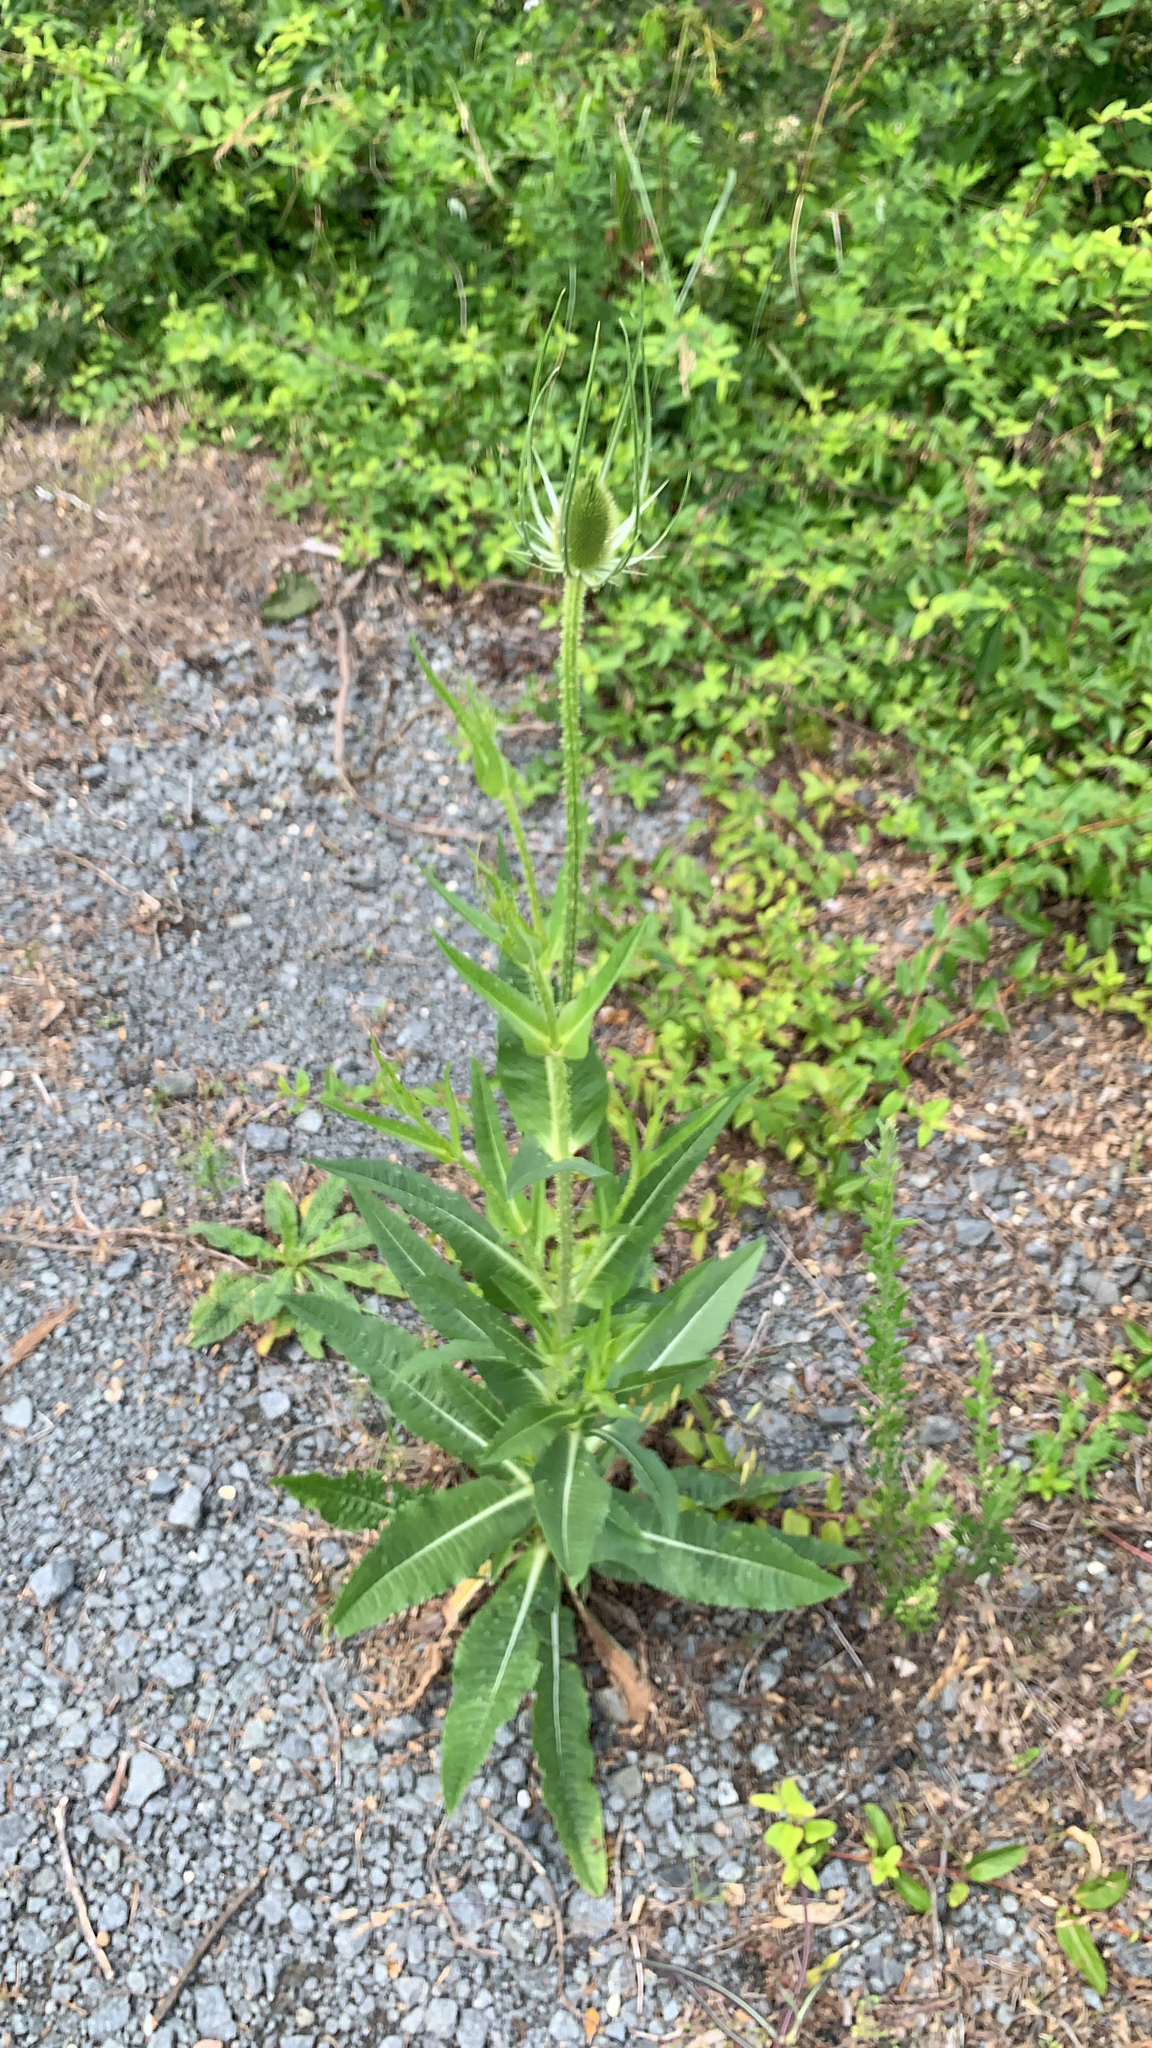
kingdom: Plantae
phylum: Tracheophyta
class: Magnoliopsida
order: Dipsacales
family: Caprifoliaceae
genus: Dipsacus
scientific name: Dipsacus fullonum
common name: Teasel
